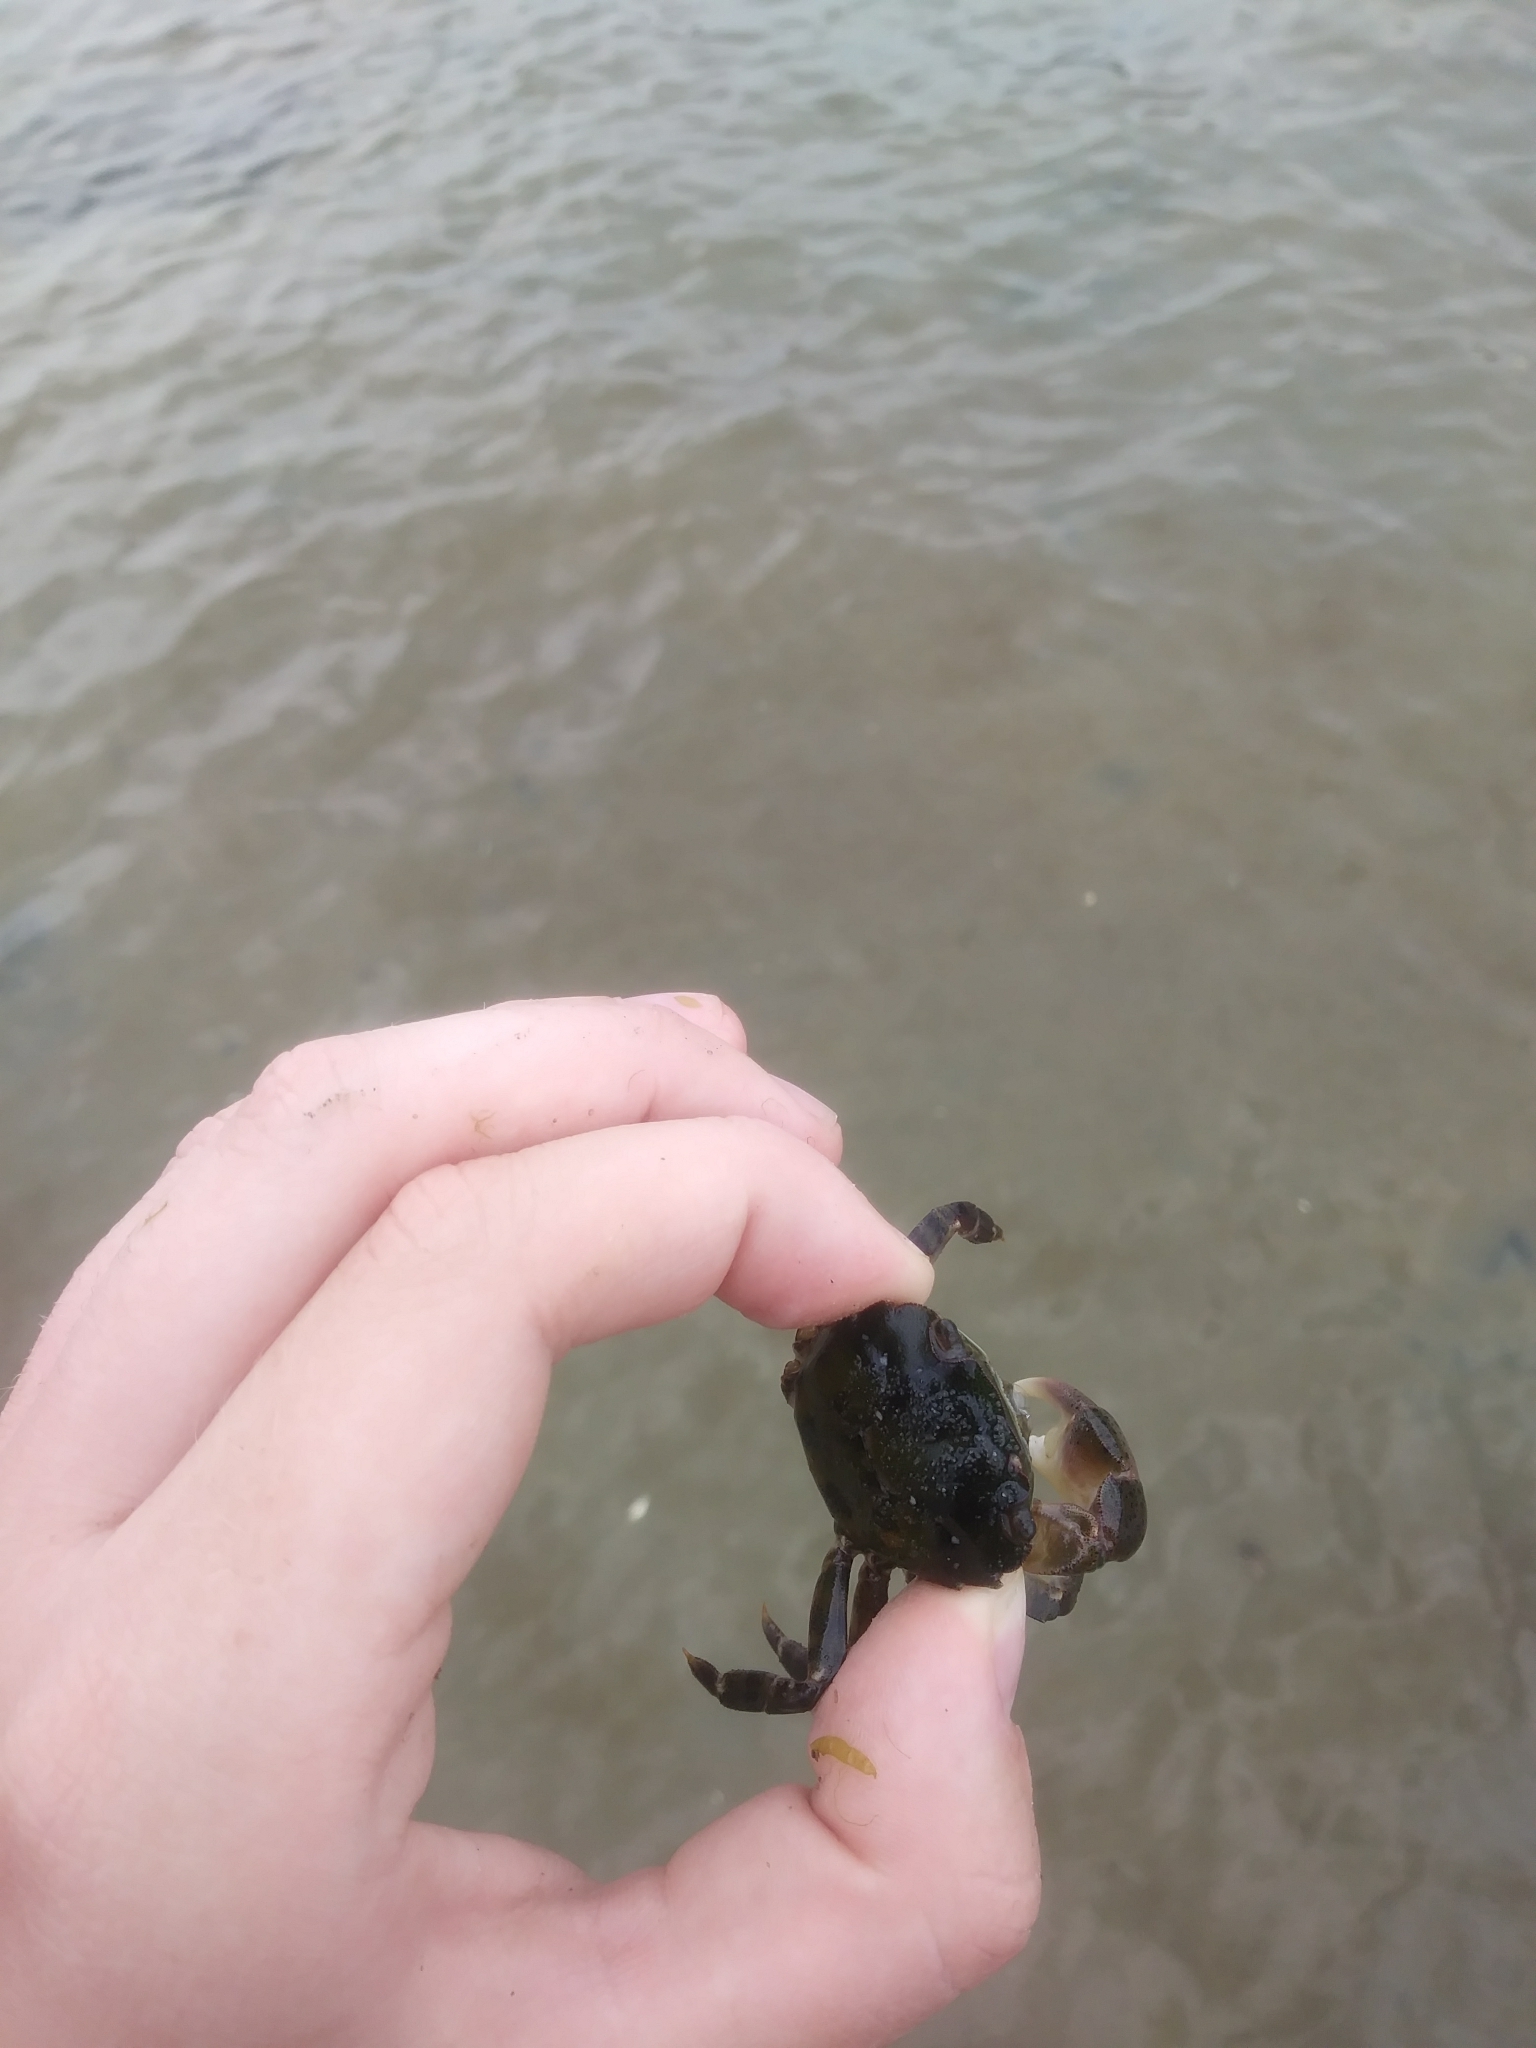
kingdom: Animalia
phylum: Arthropoda
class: Malacostraca
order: Decapoda
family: Varunidae
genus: Hemigrapsus
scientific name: Hemigrapsus sanguineus
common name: Asian shore crab
